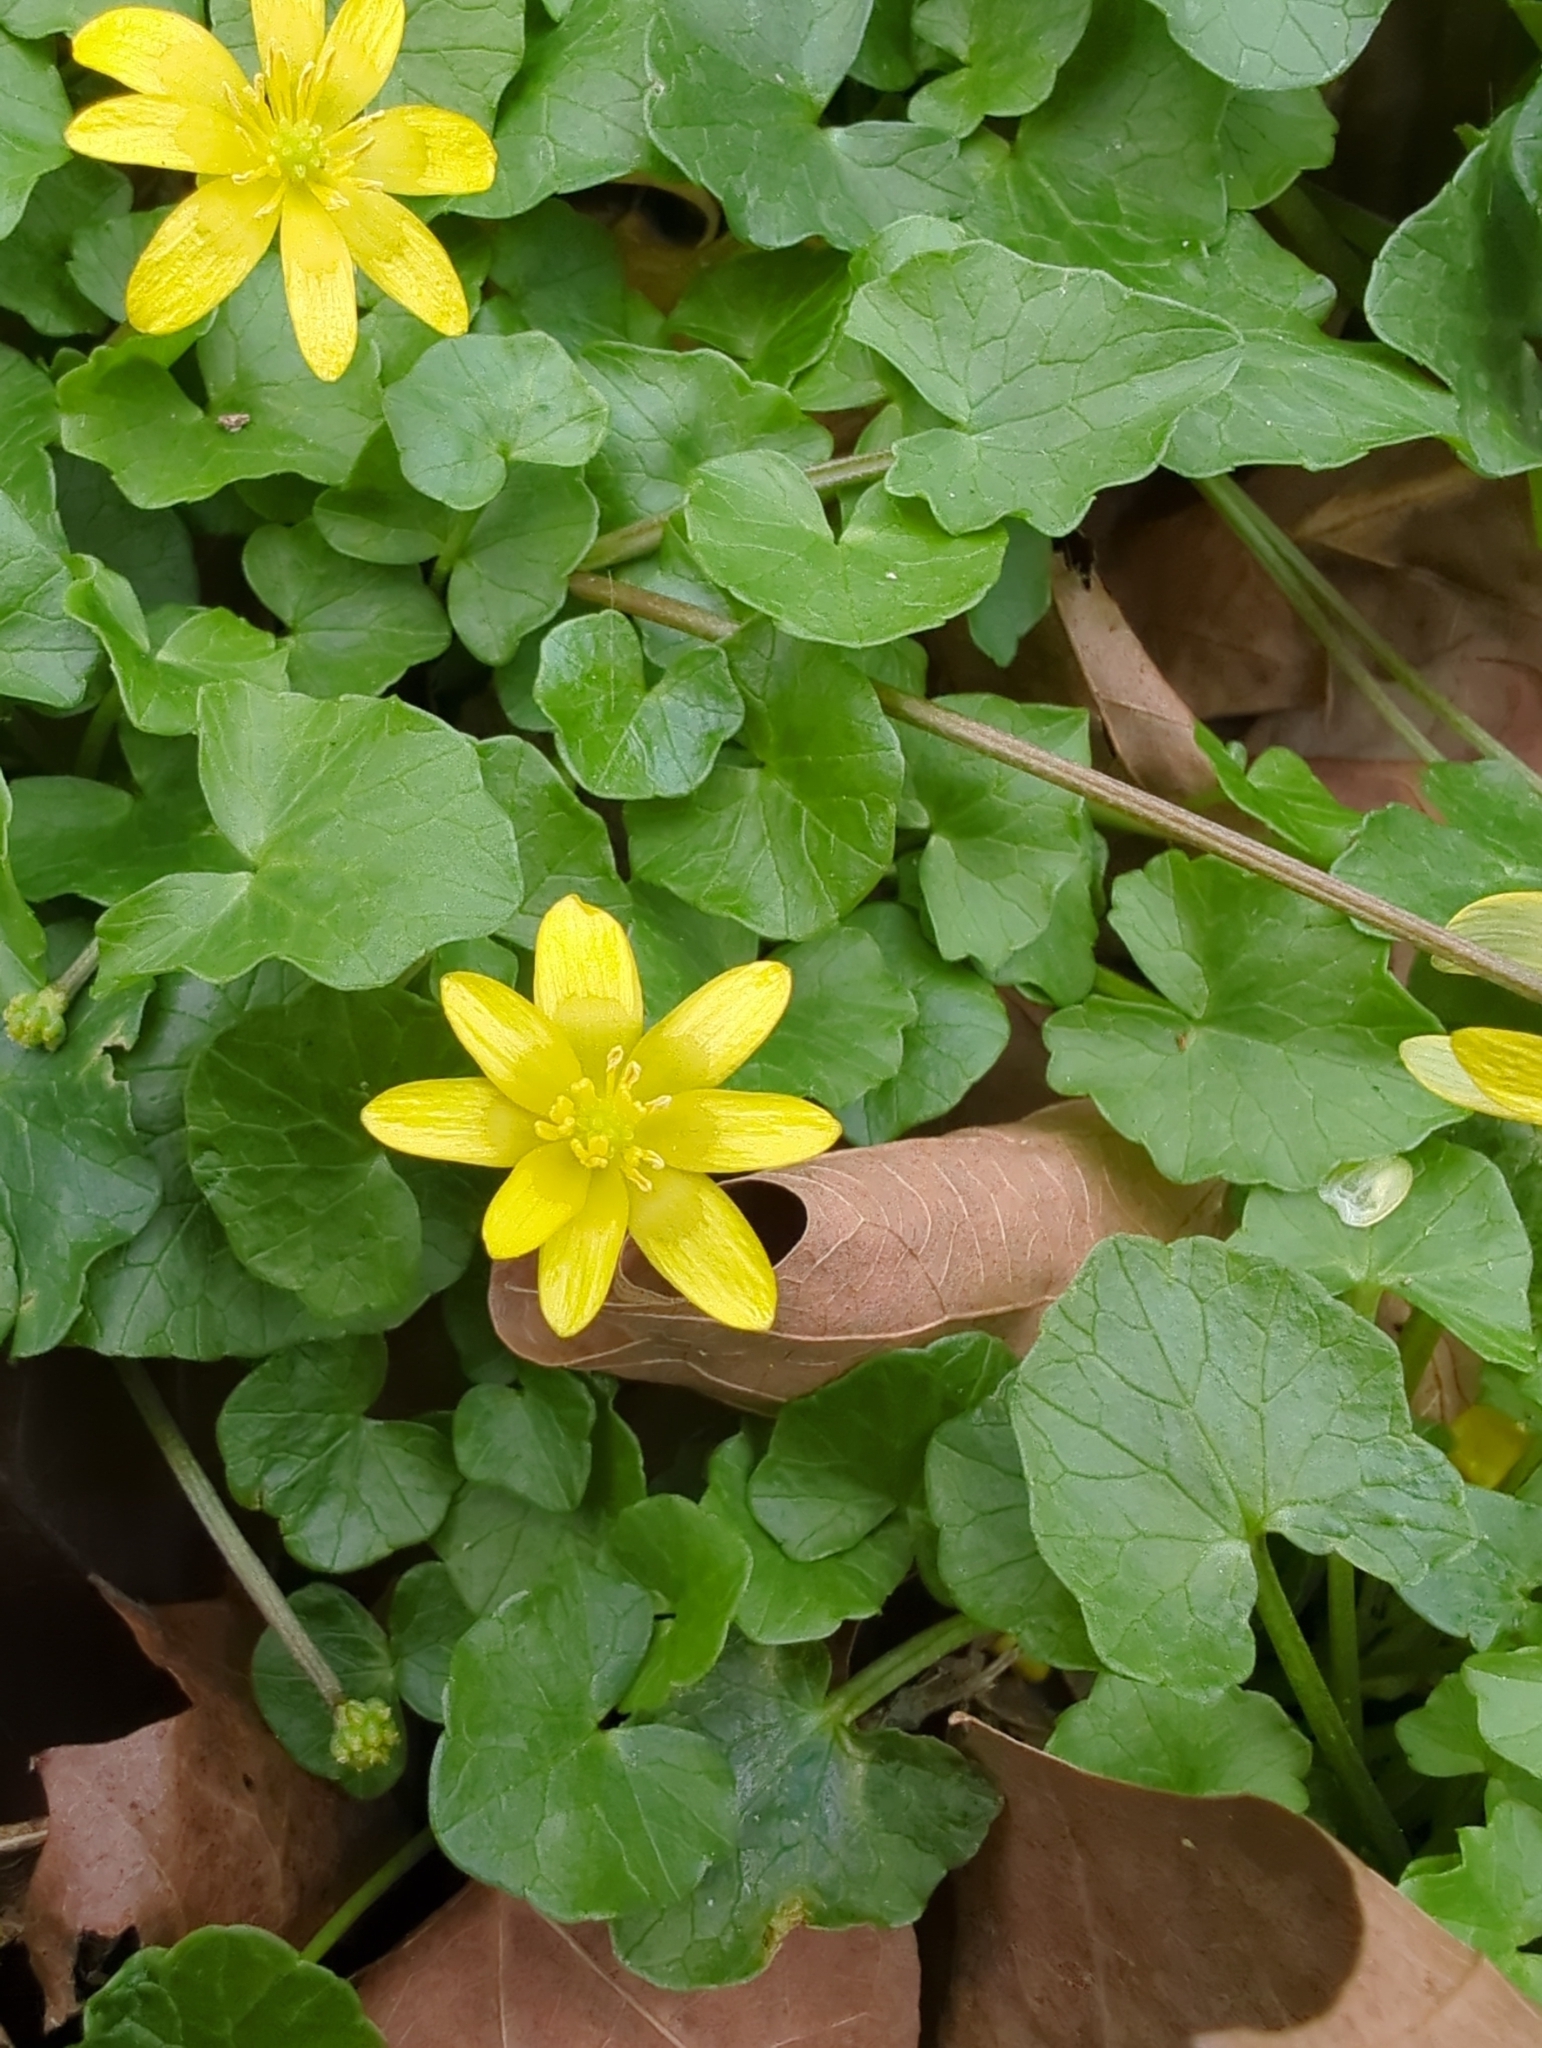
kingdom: Plantae
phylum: Tracheophyta
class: Magnoliopsida
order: Ranunculales
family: Ranunculaceae
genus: Ficaria
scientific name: Ficaria verna
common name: Lesser celandine
